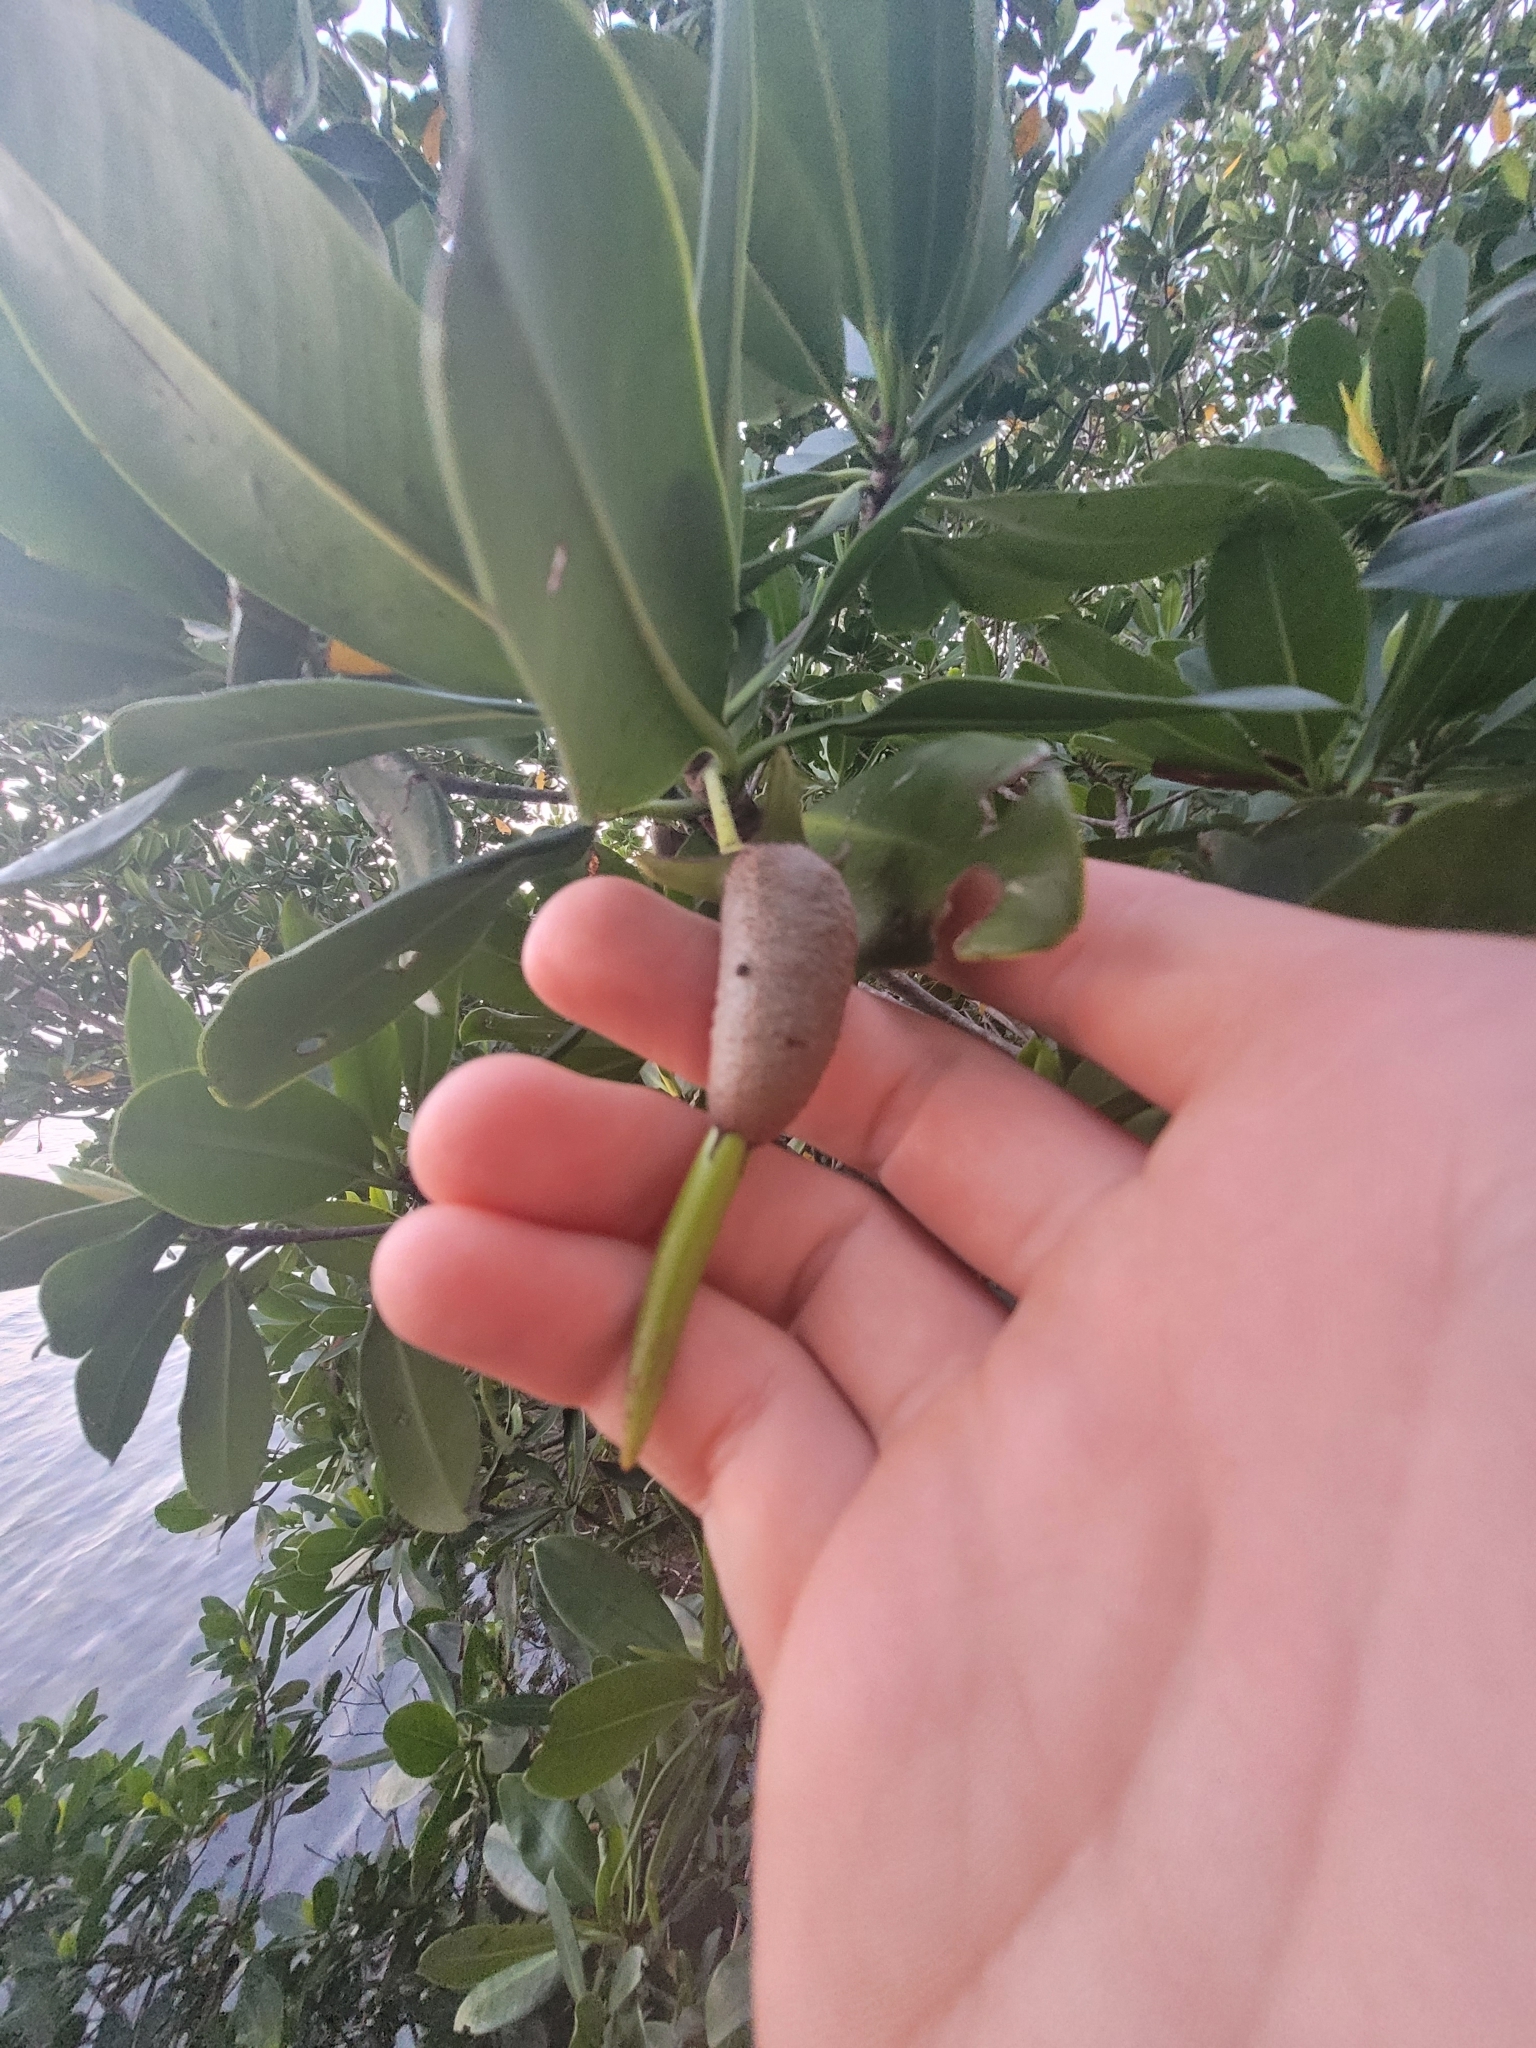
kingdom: Plantae
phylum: Tracheophyta
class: Magnoliopsida
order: Malpighiales
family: Rhizophoraceae
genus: Rhizophora
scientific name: Rhizophora mangle
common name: Red mangrove
